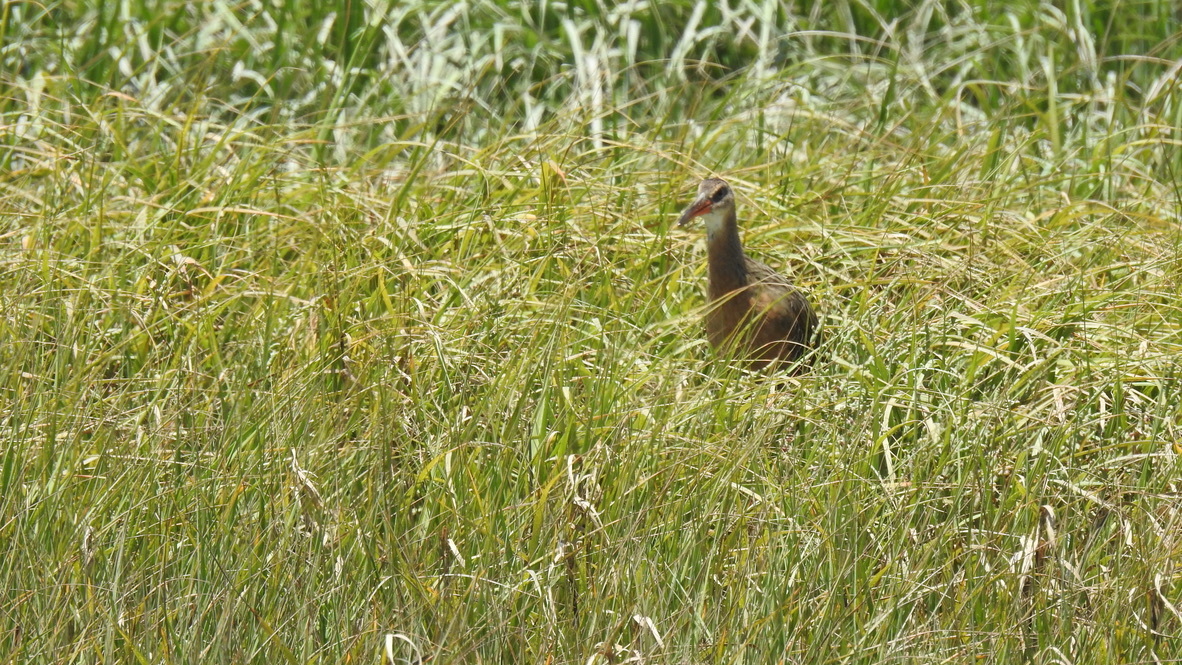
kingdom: Animalia
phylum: Chordata
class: Aves
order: Gruiformes
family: Rallidae
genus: Rallus
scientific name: Rallus obsoletus
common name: Ridgway's rail
